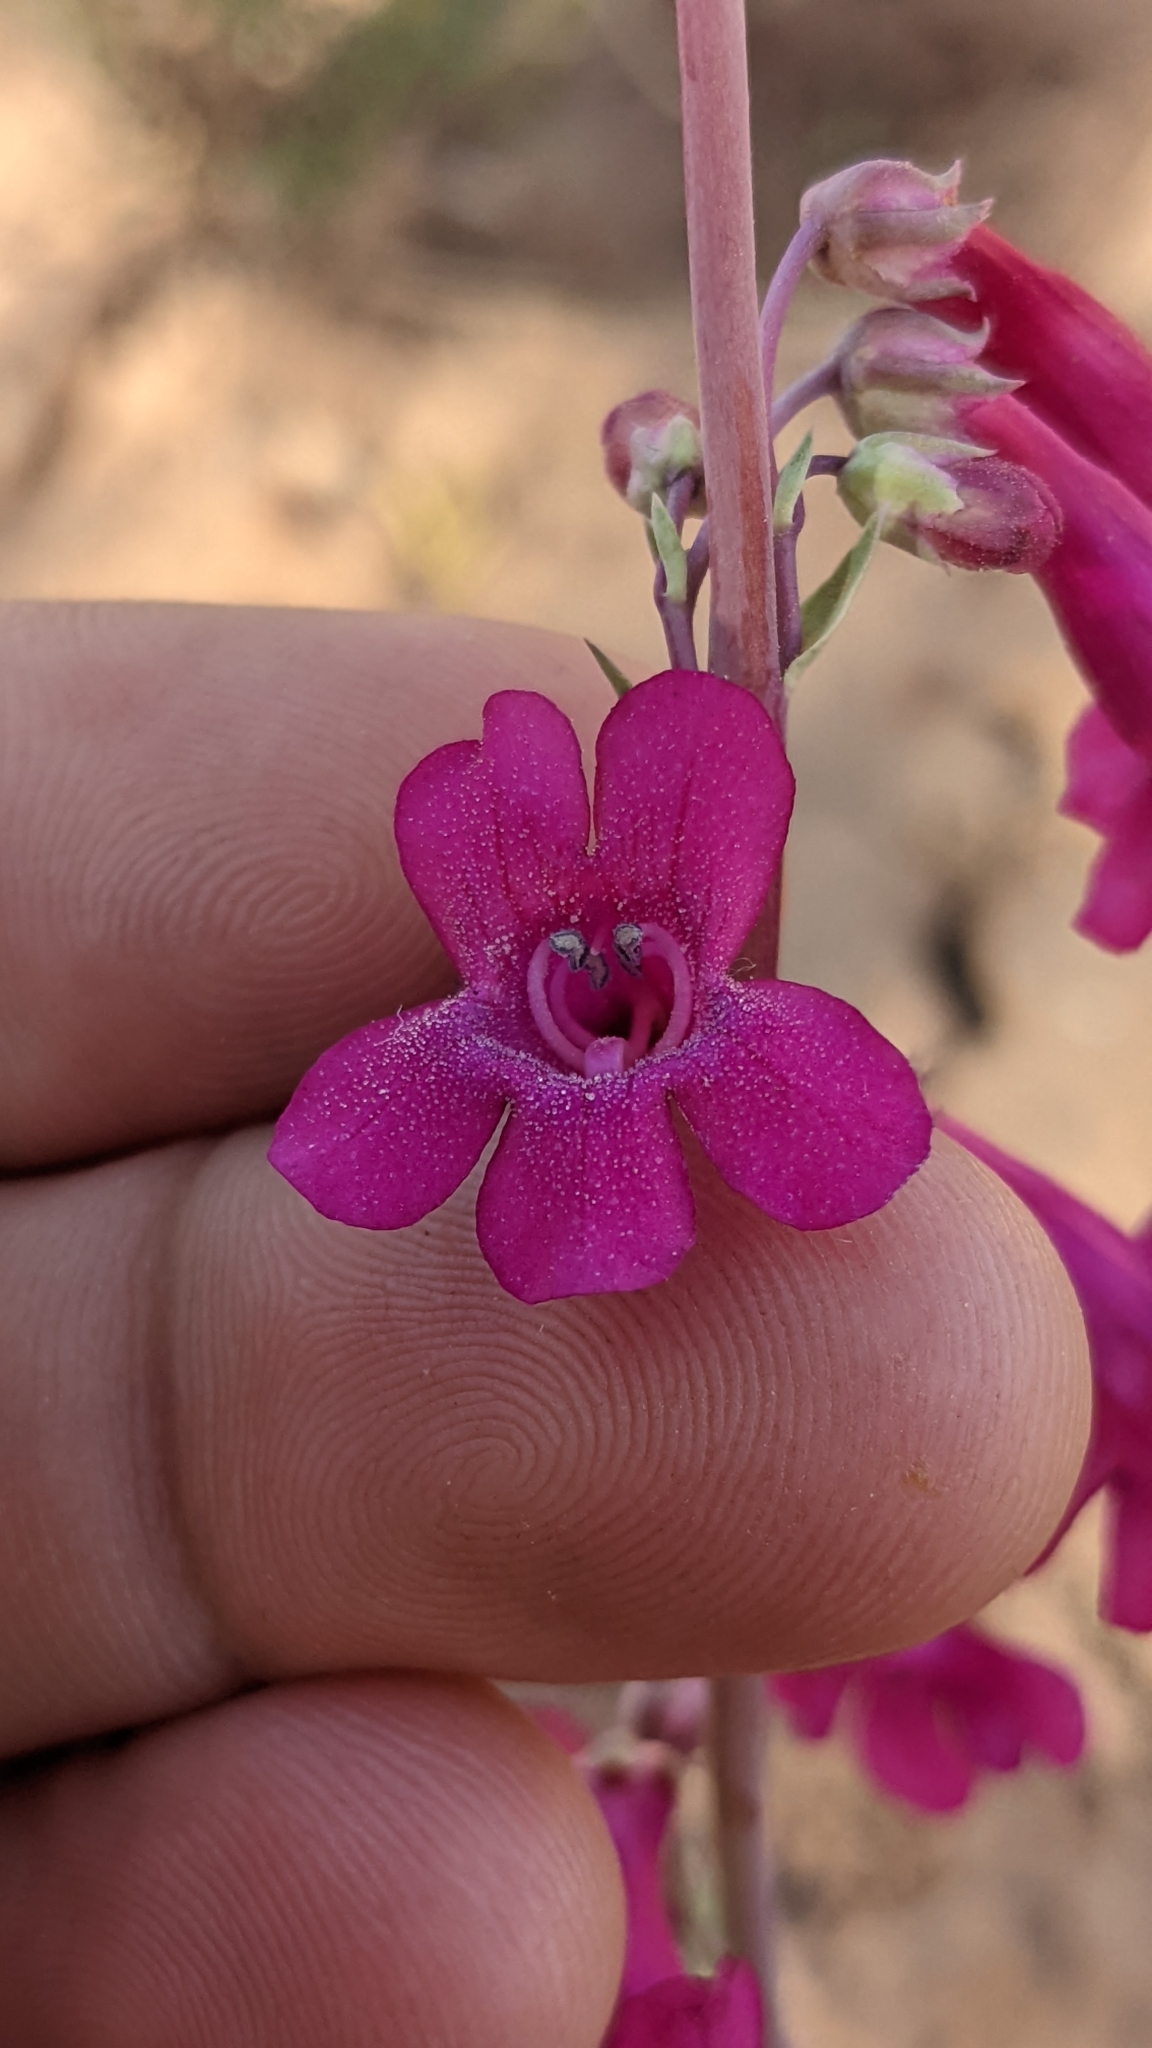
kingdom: Plantae
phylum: Tracheophyta
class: Magnoliopsida
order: Lamiales
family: Plantaginaceae
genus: Penstemon
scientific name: Penstemon confusus
